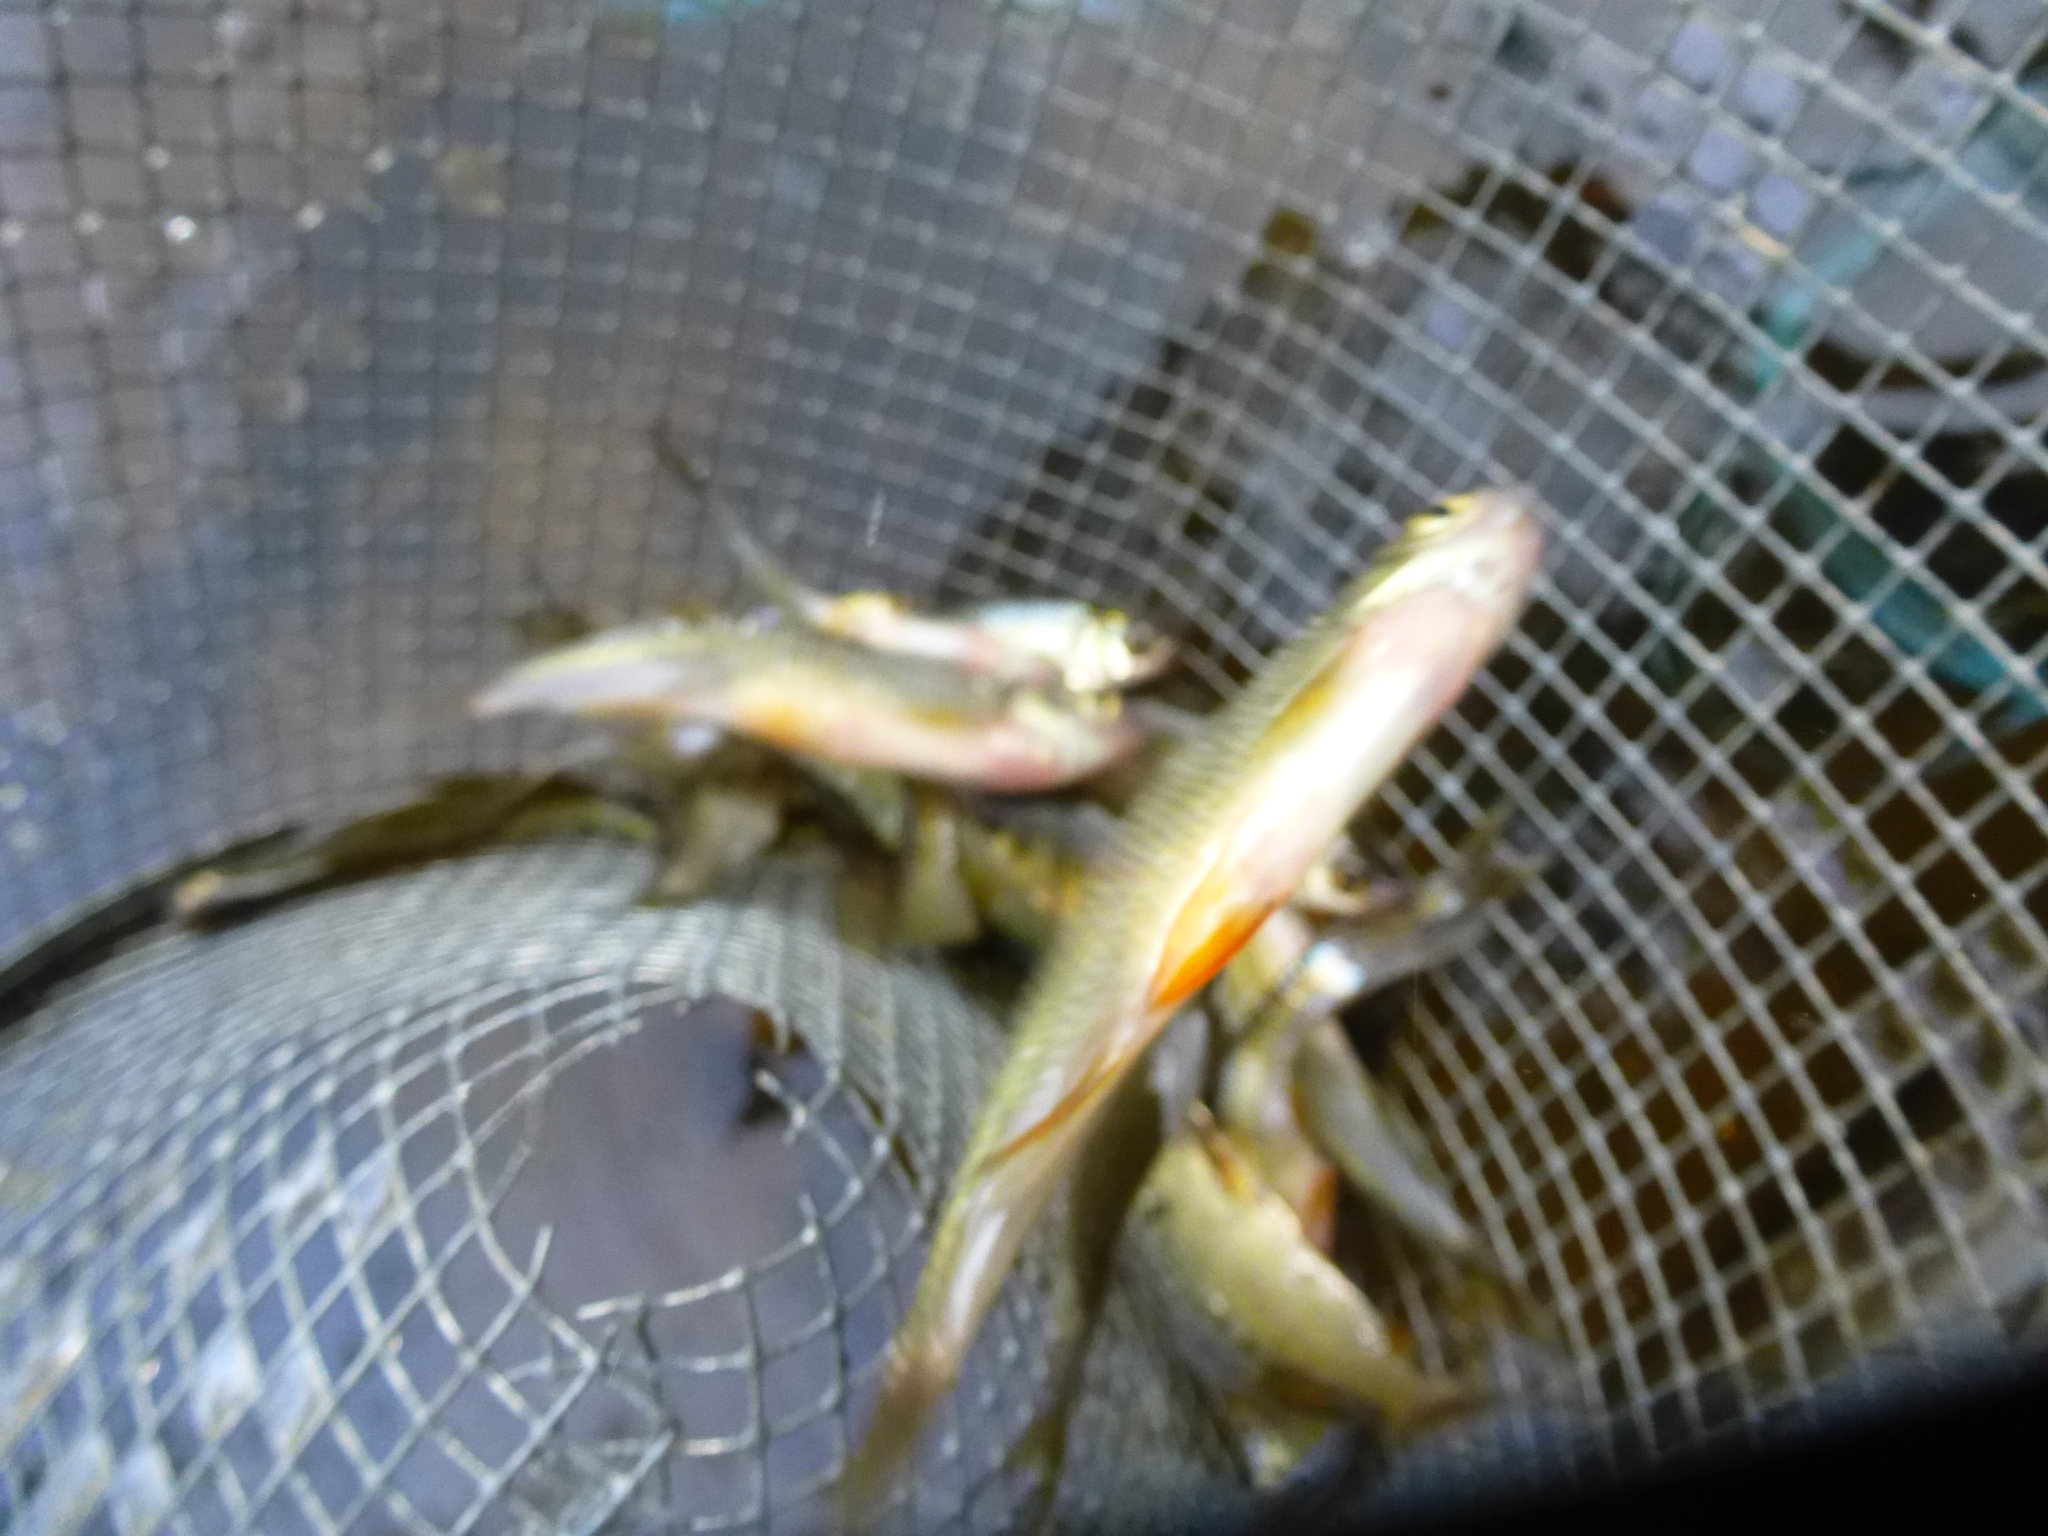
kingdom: Animalia
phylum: Chordata
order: Cypriniformes
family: Cyprinidae
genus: Notemigonus
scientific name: Notemigonus crysoleucas
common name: Golden shiner
